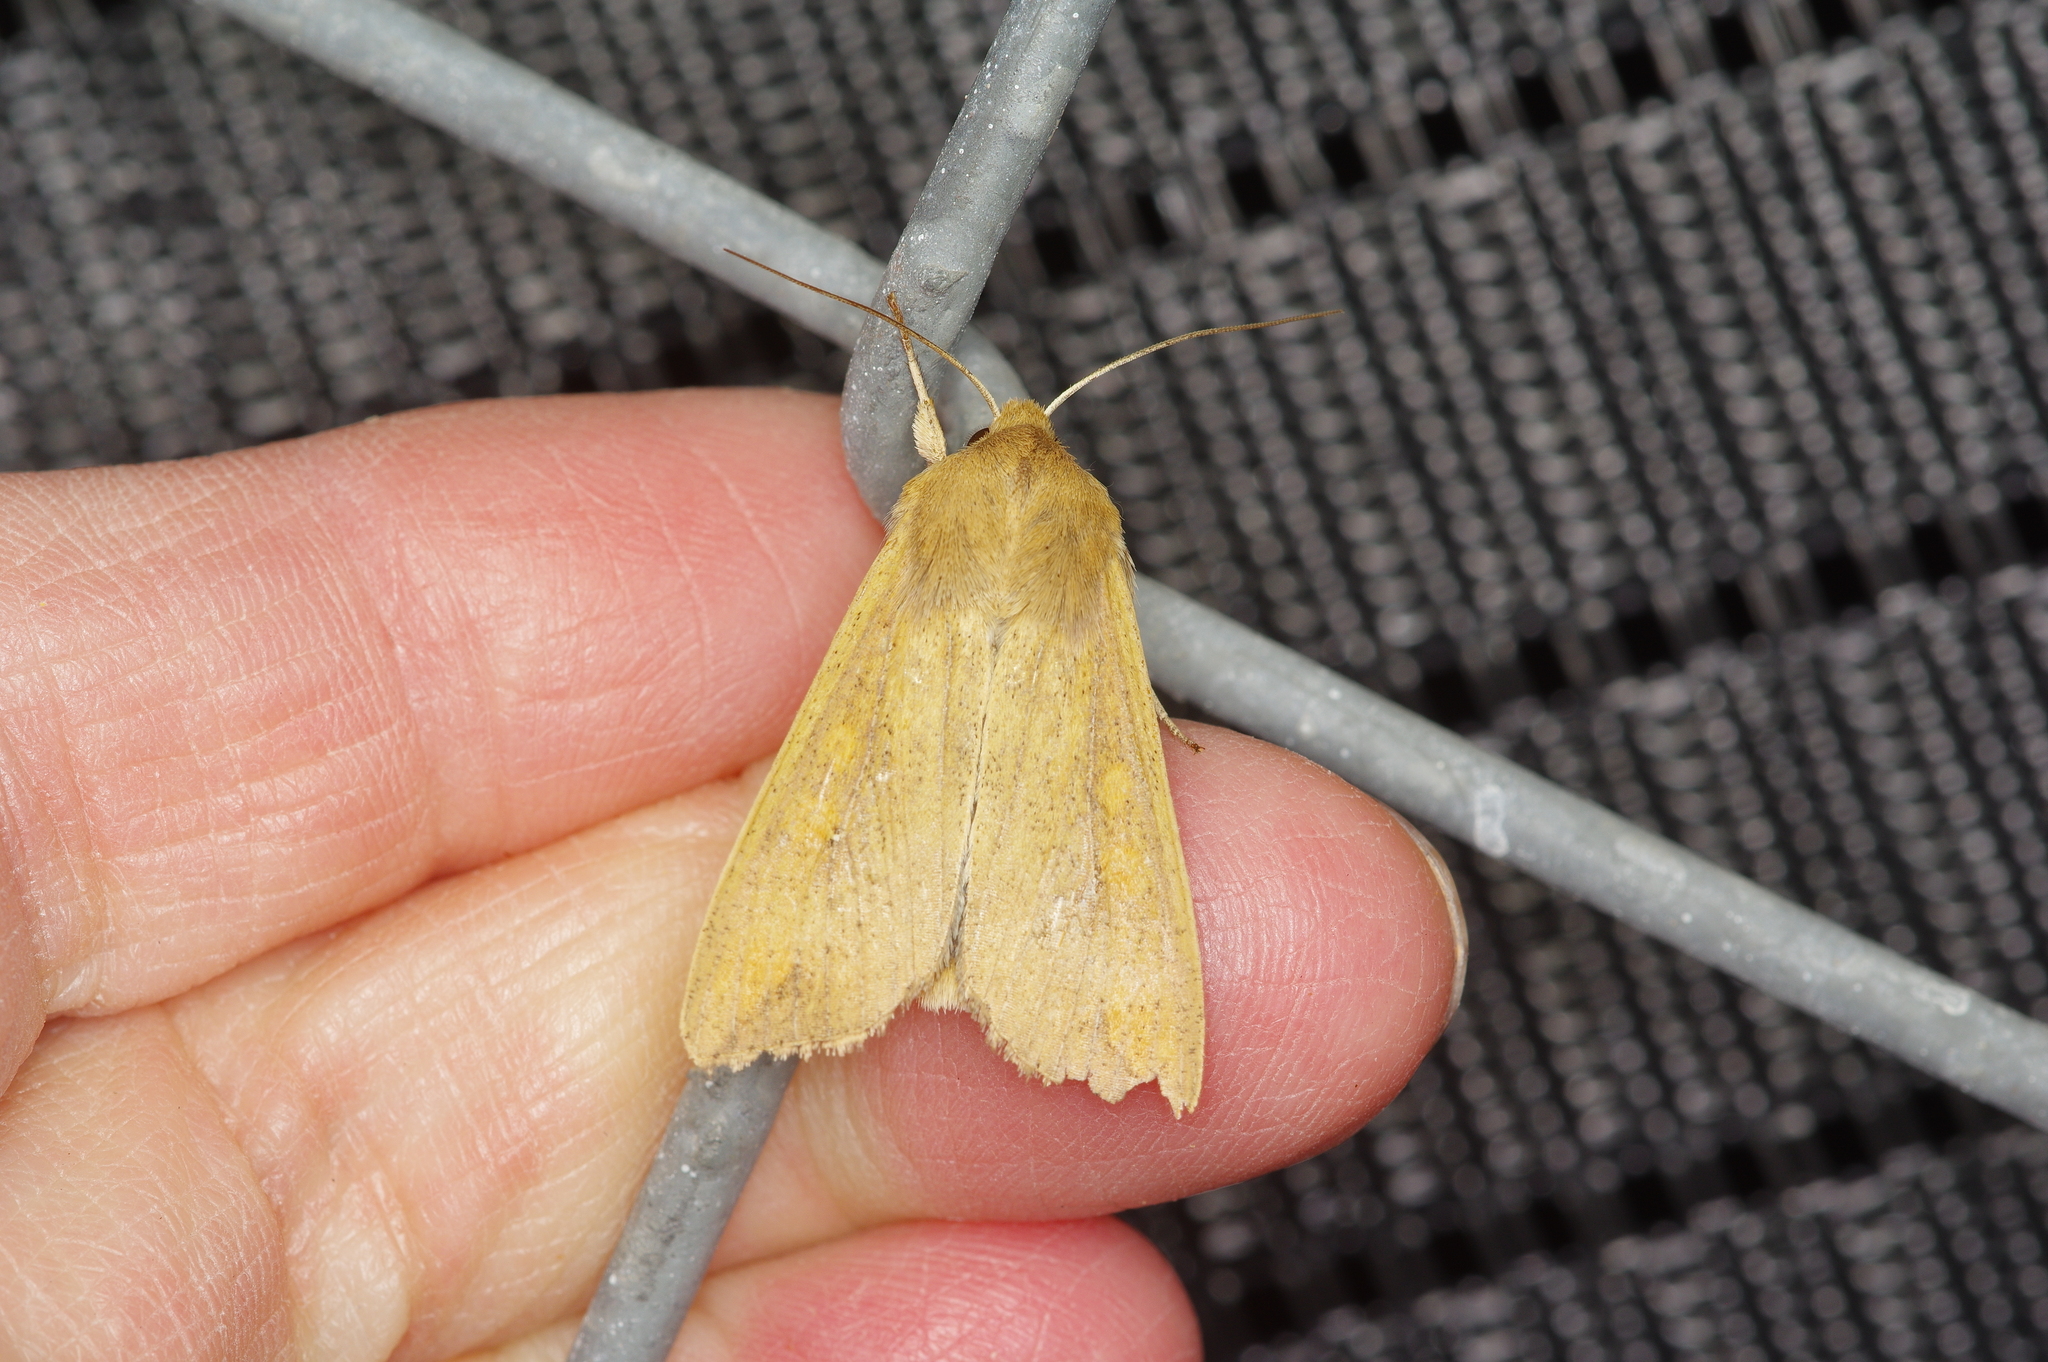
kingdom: Animalia
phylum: Arthropoda
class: Insecta
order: Lepidoptera
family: Noctuidae
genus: Mythimna
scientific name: Mythimna unipuncta
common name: White-speck
